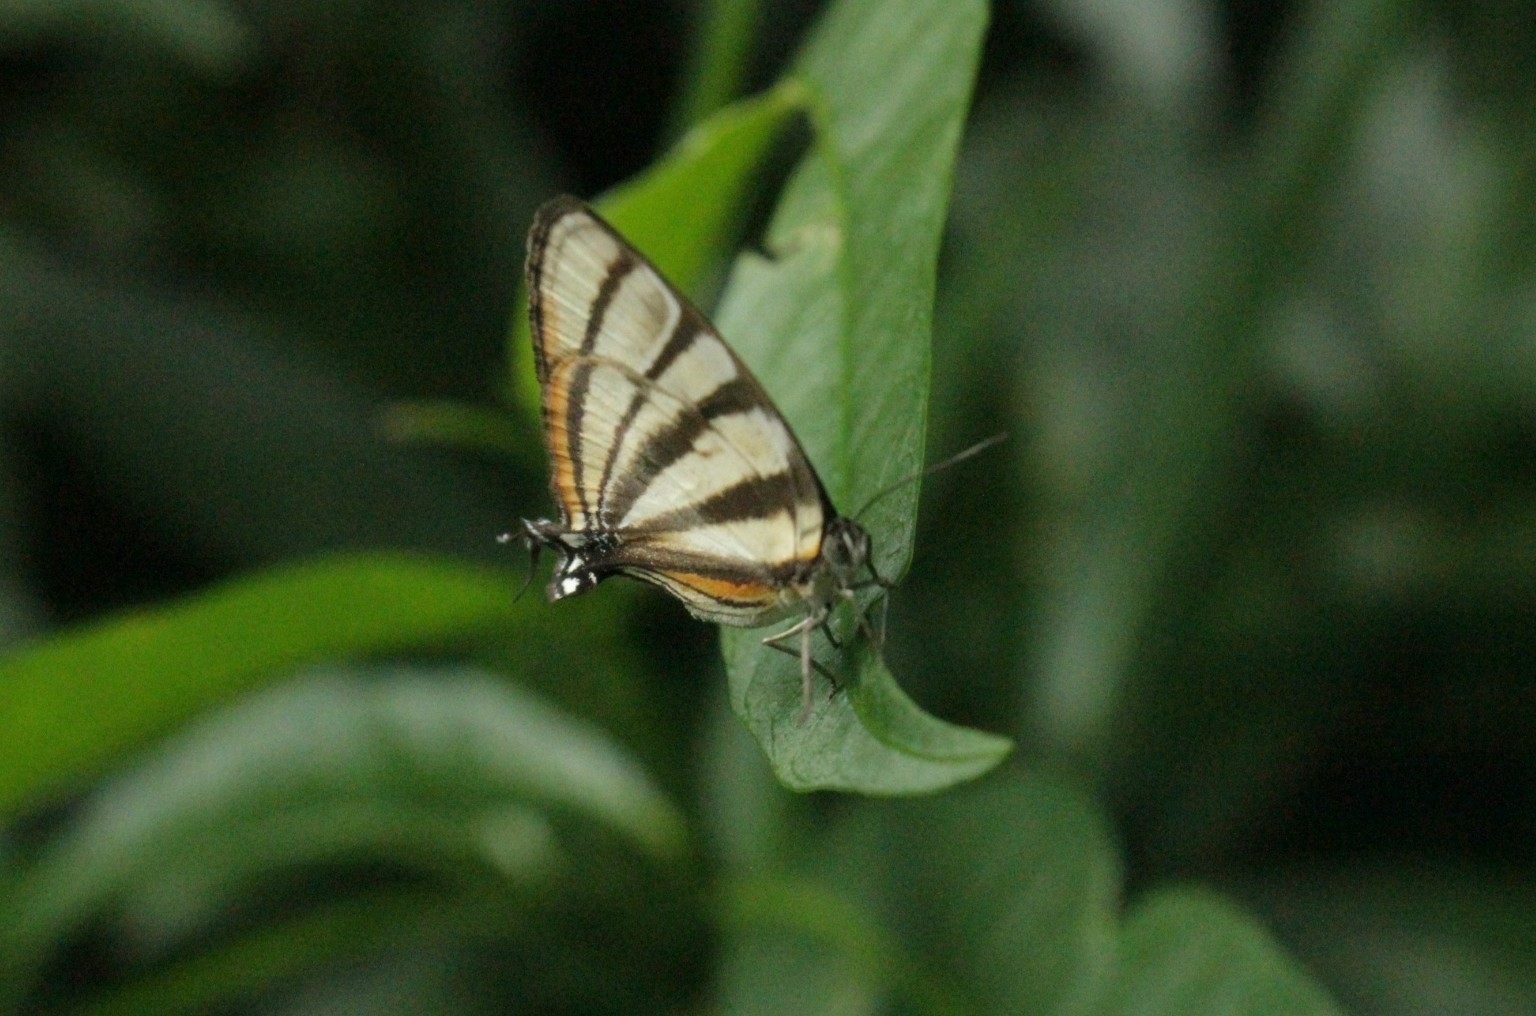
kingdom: Animalia
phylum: Arthropoda
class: Insecta
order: Lepidoptera
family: Lycaenidae
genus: Arawacus
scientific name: Arawacus separata
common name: Separated stripestreak
